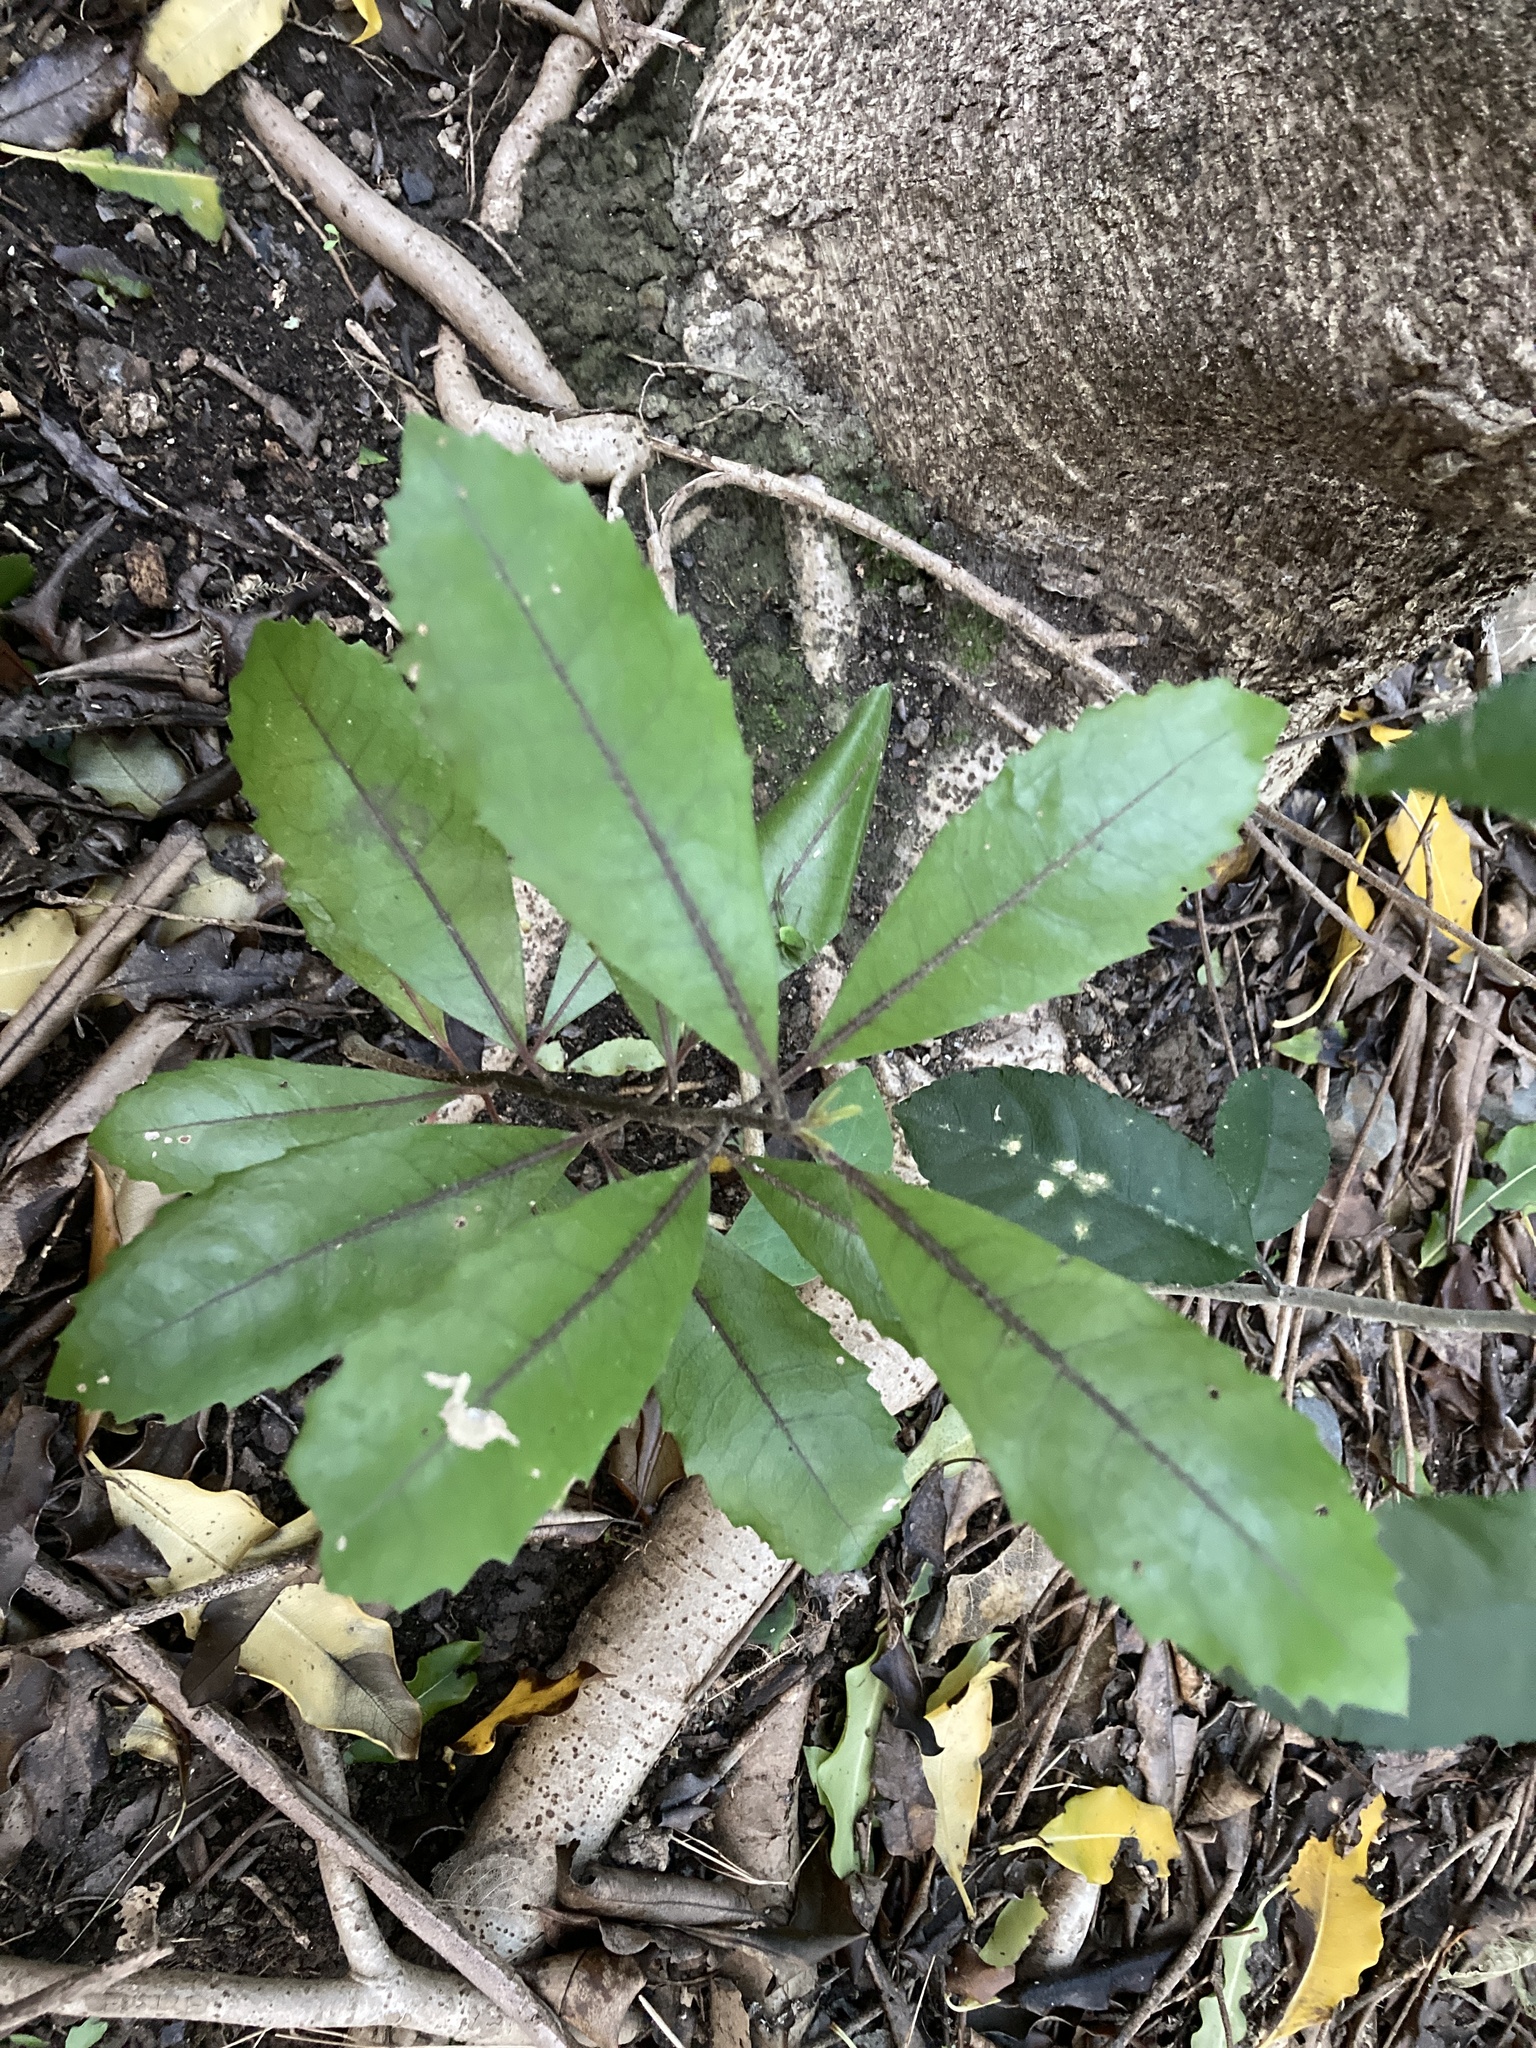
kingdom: Plantae
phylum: Tracheophyta
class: Magnoliopsida
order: Laurales
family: Monimiaceae
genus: Hedycarya
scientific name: Hedycarya arborea
